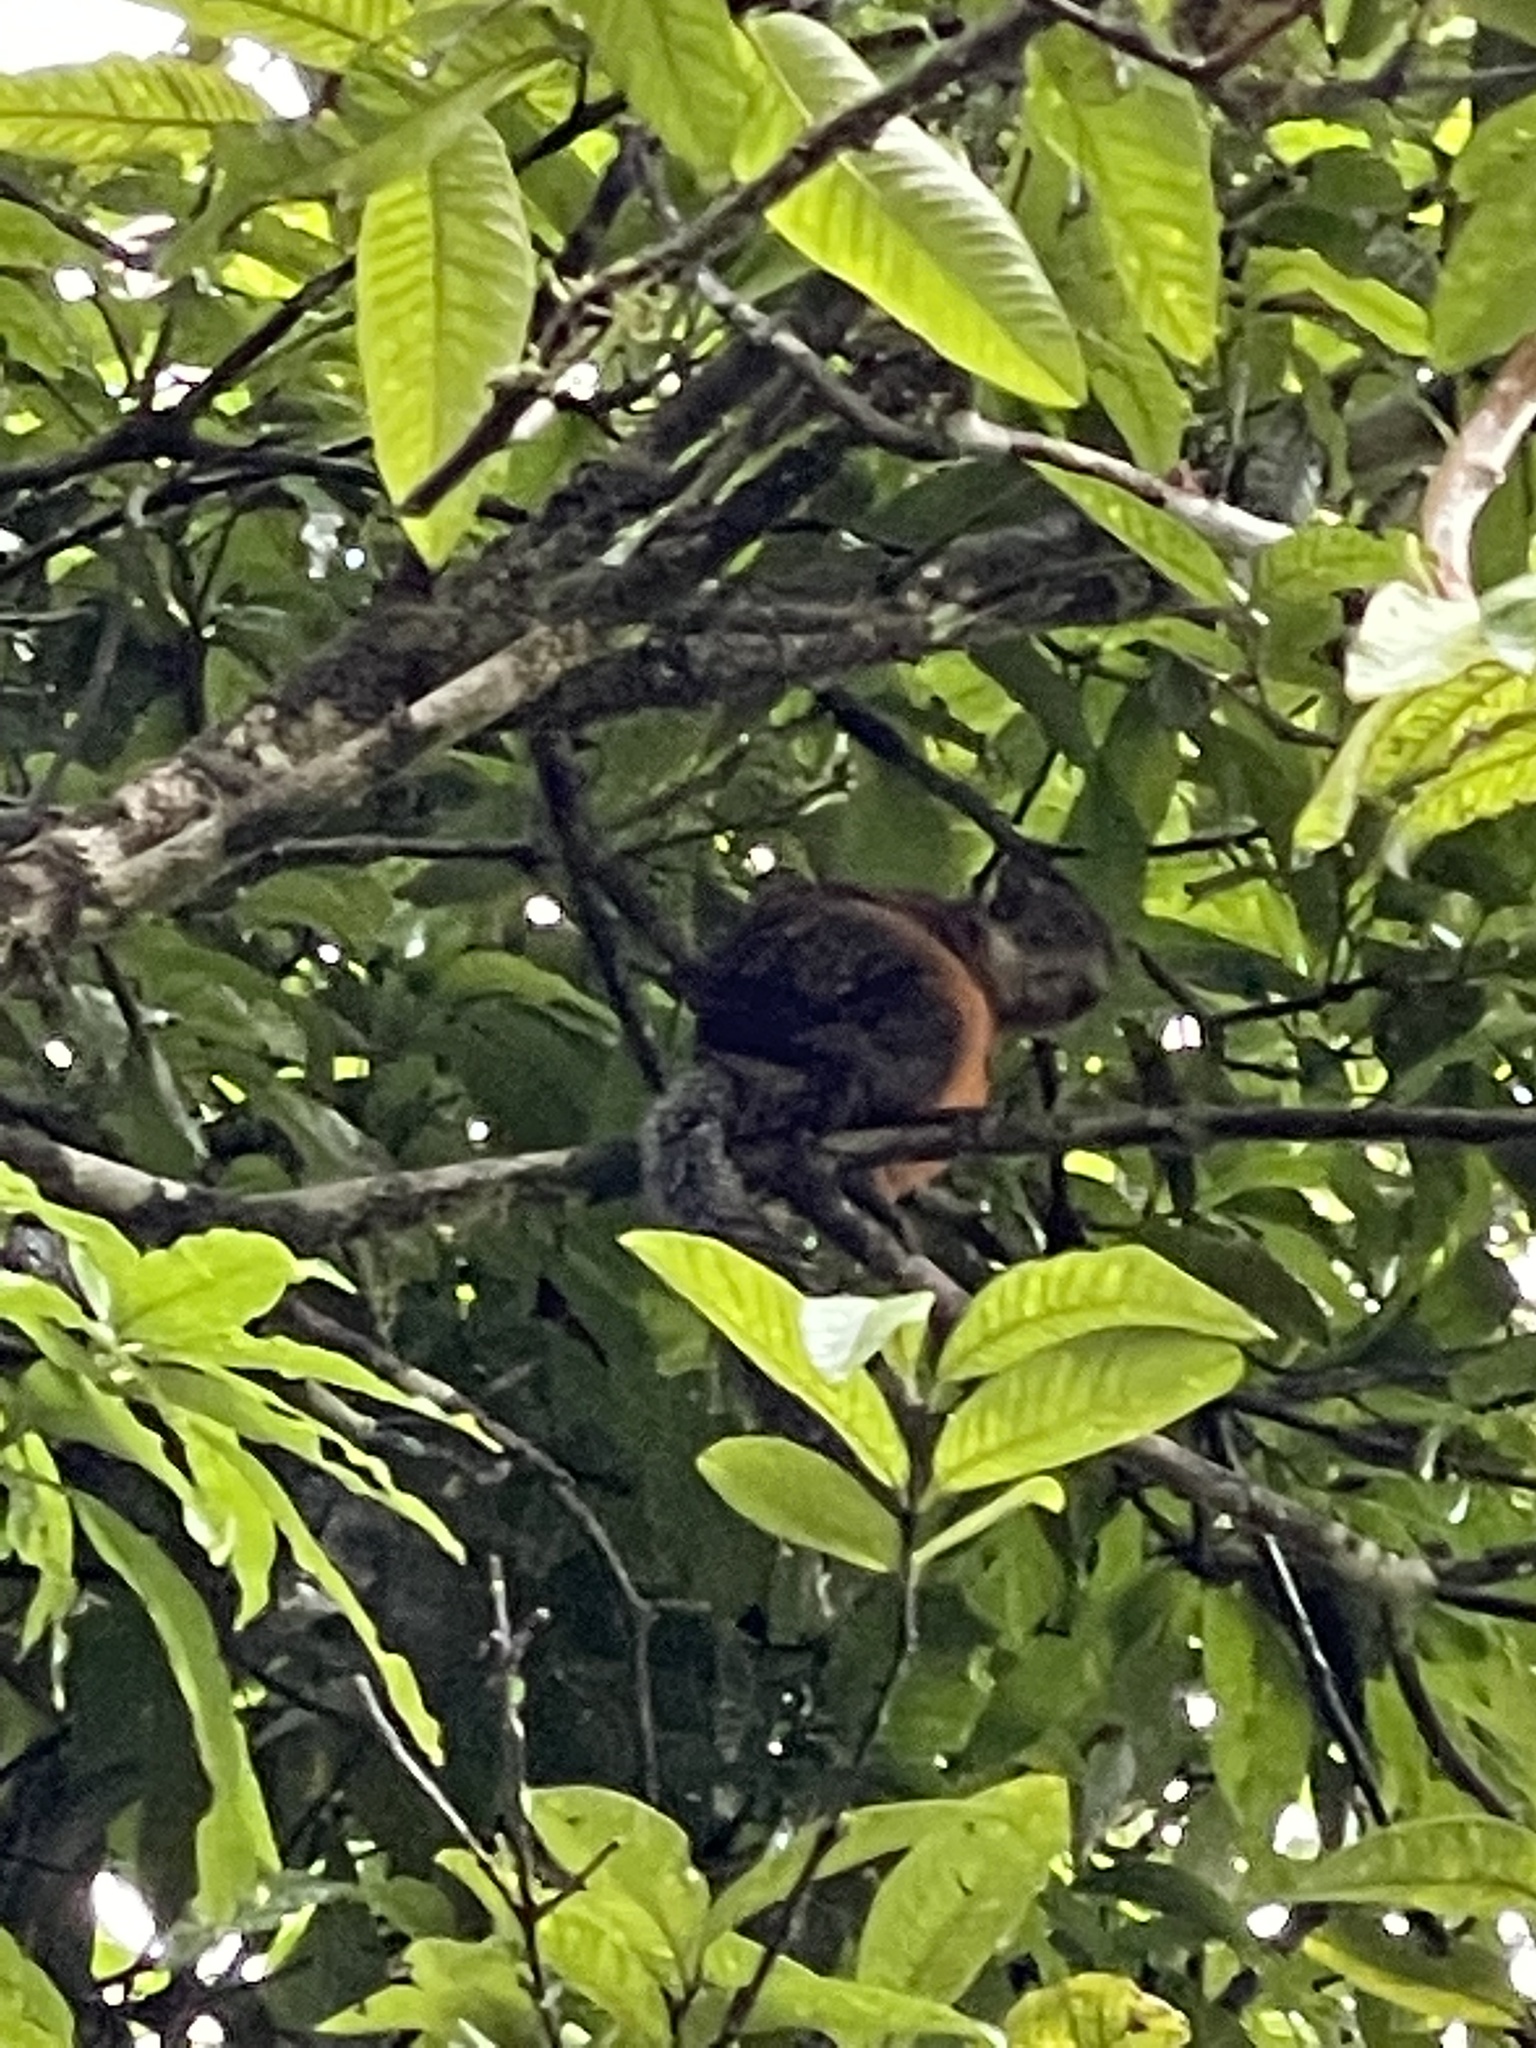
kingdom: Animalia
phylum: Chordata
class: Mammalia
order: Rodentia
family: Sciuridae
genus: Sciurus
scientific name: Sciurus variegatoides
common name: Variegated squirrel
